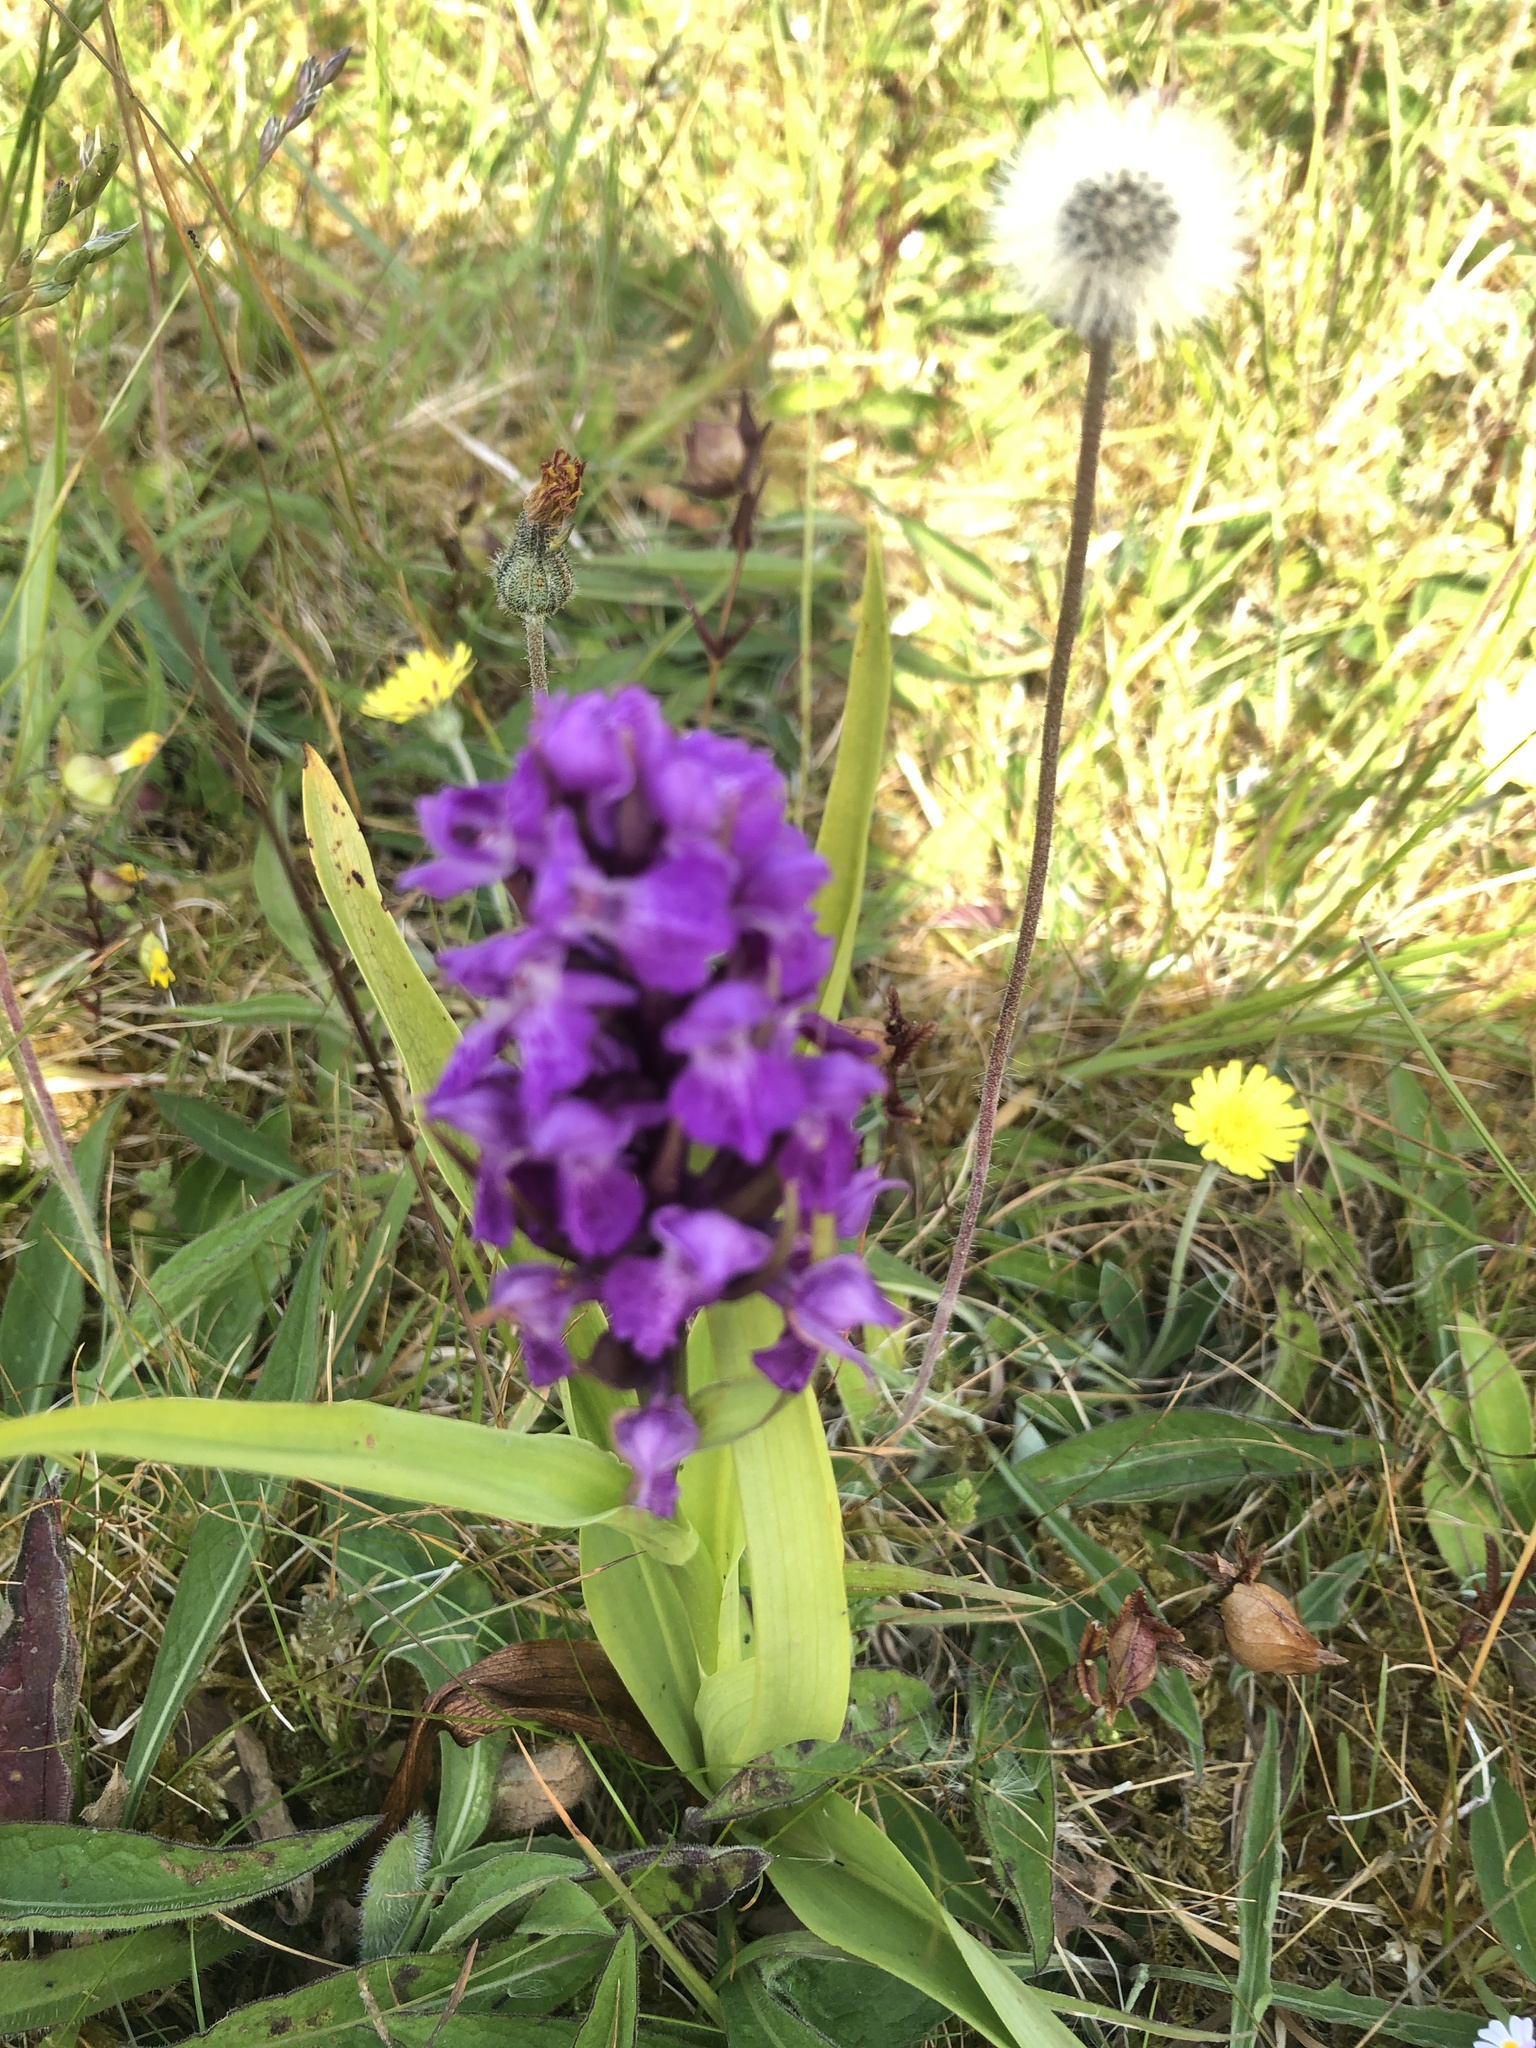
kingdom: Plantae
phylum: Tracheophyta
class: Liliopsida
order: Asparagales
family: Orchidaceae
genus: Dactylorhiza
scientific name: Dactylorhiza majalis
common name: Marsh orchid
